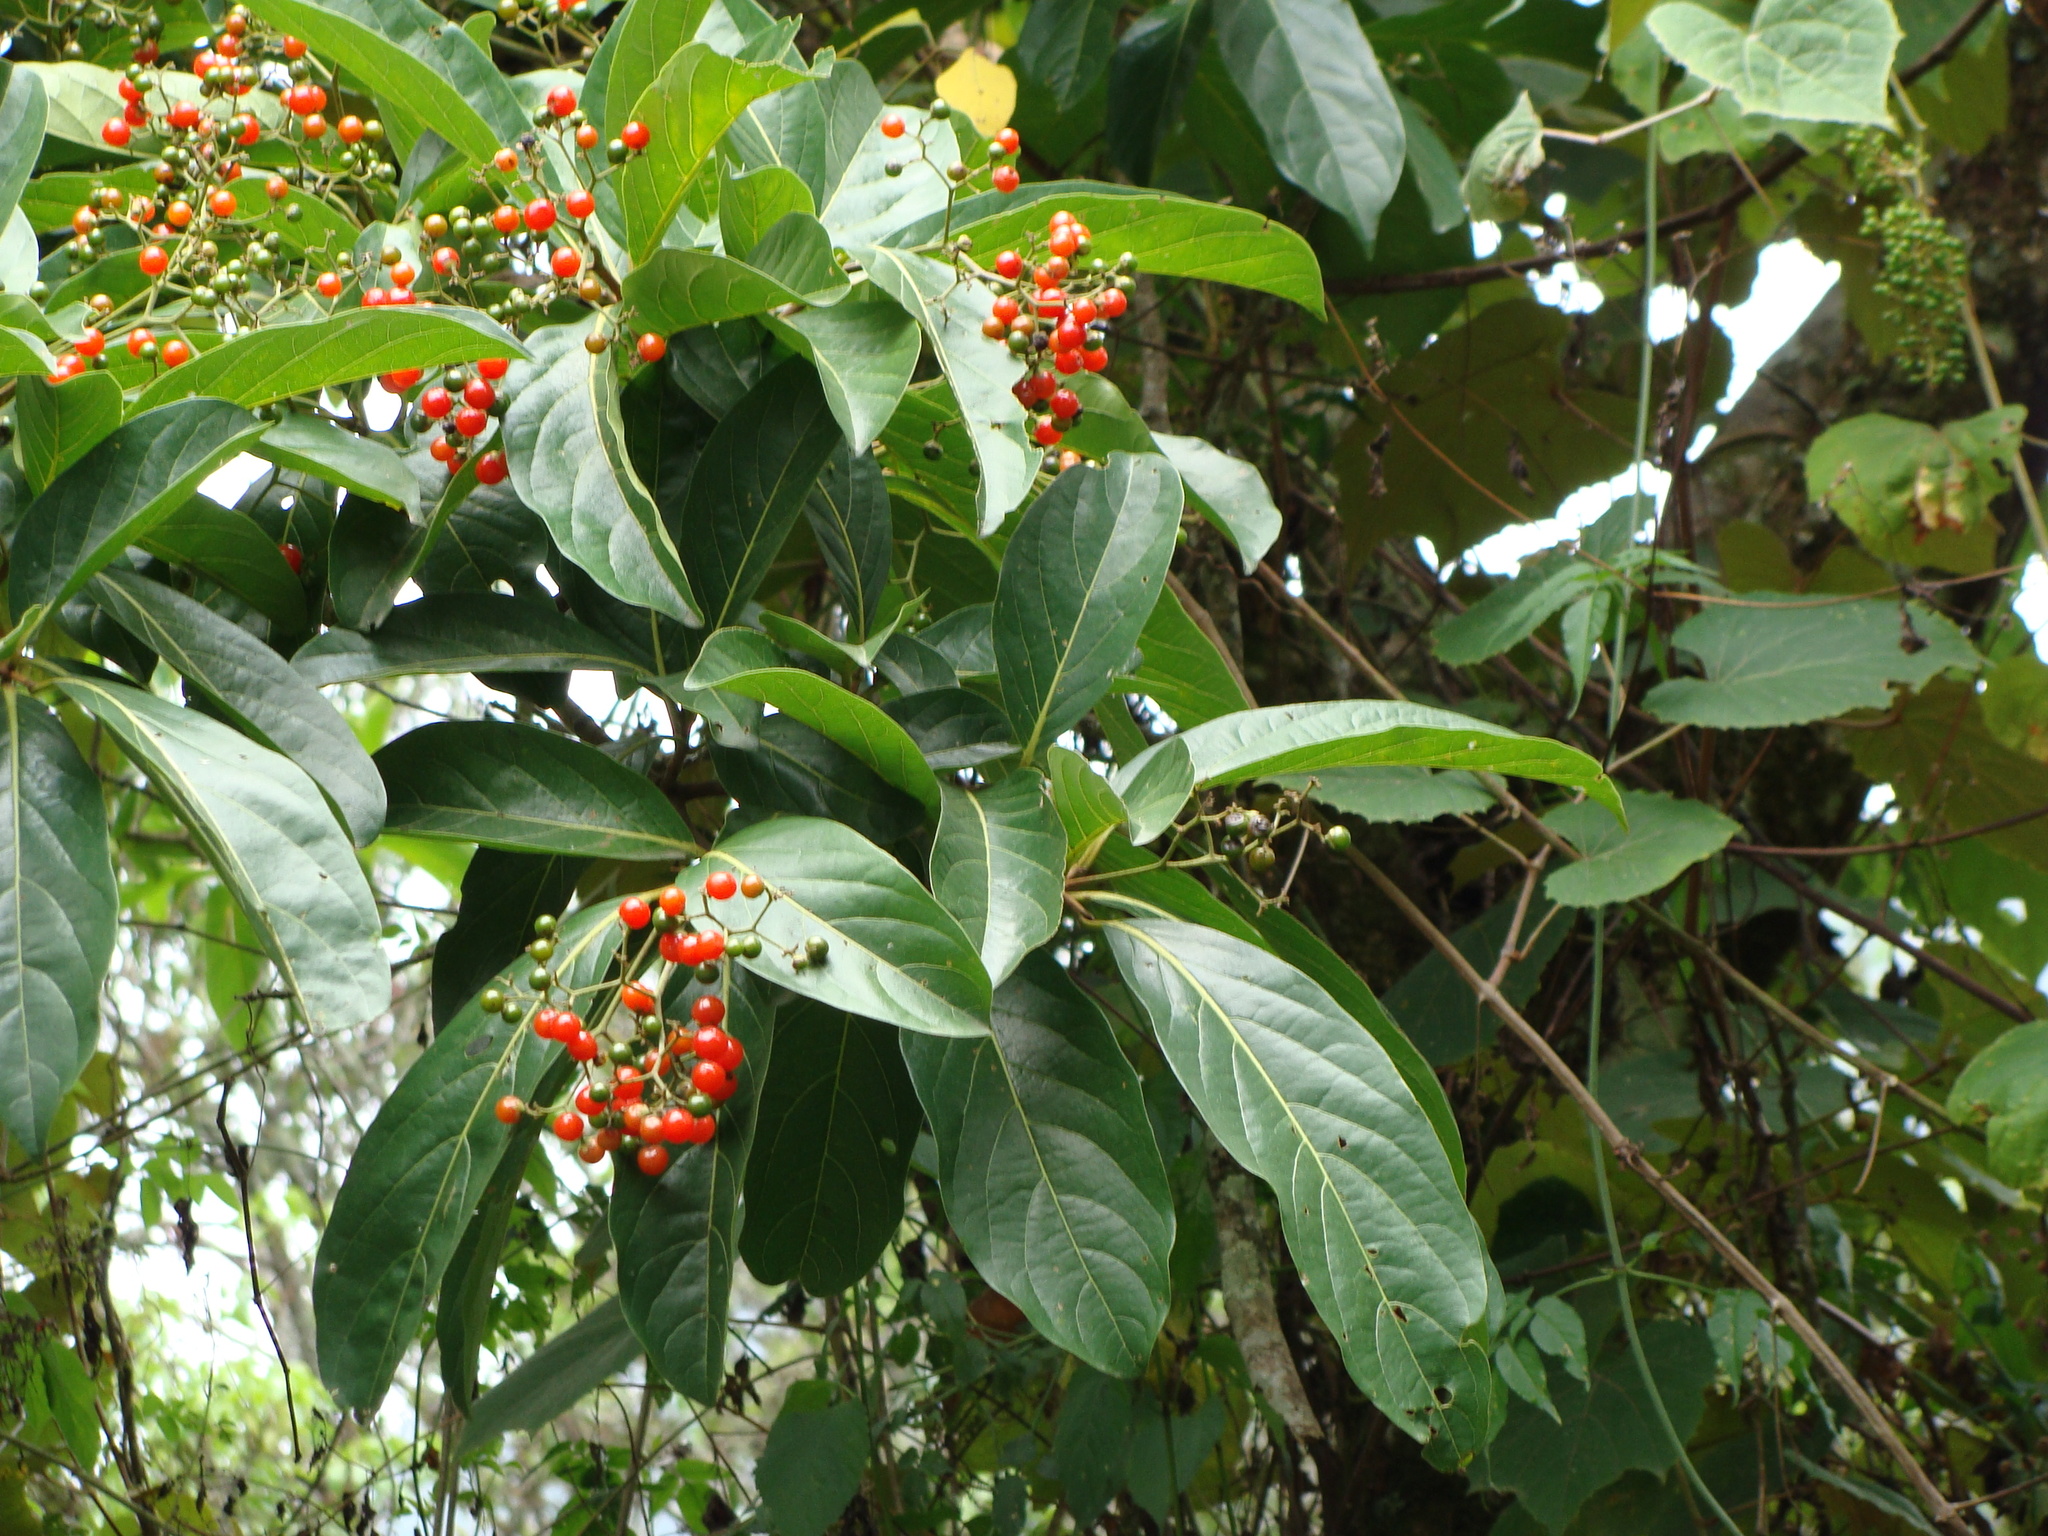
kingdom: Plantae
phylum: Tracheophyta
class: Magnoliopsida
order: Boraginales
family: Cordiaceae
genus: Cordia
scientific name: Cordia collococca
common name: Clammy cherry
